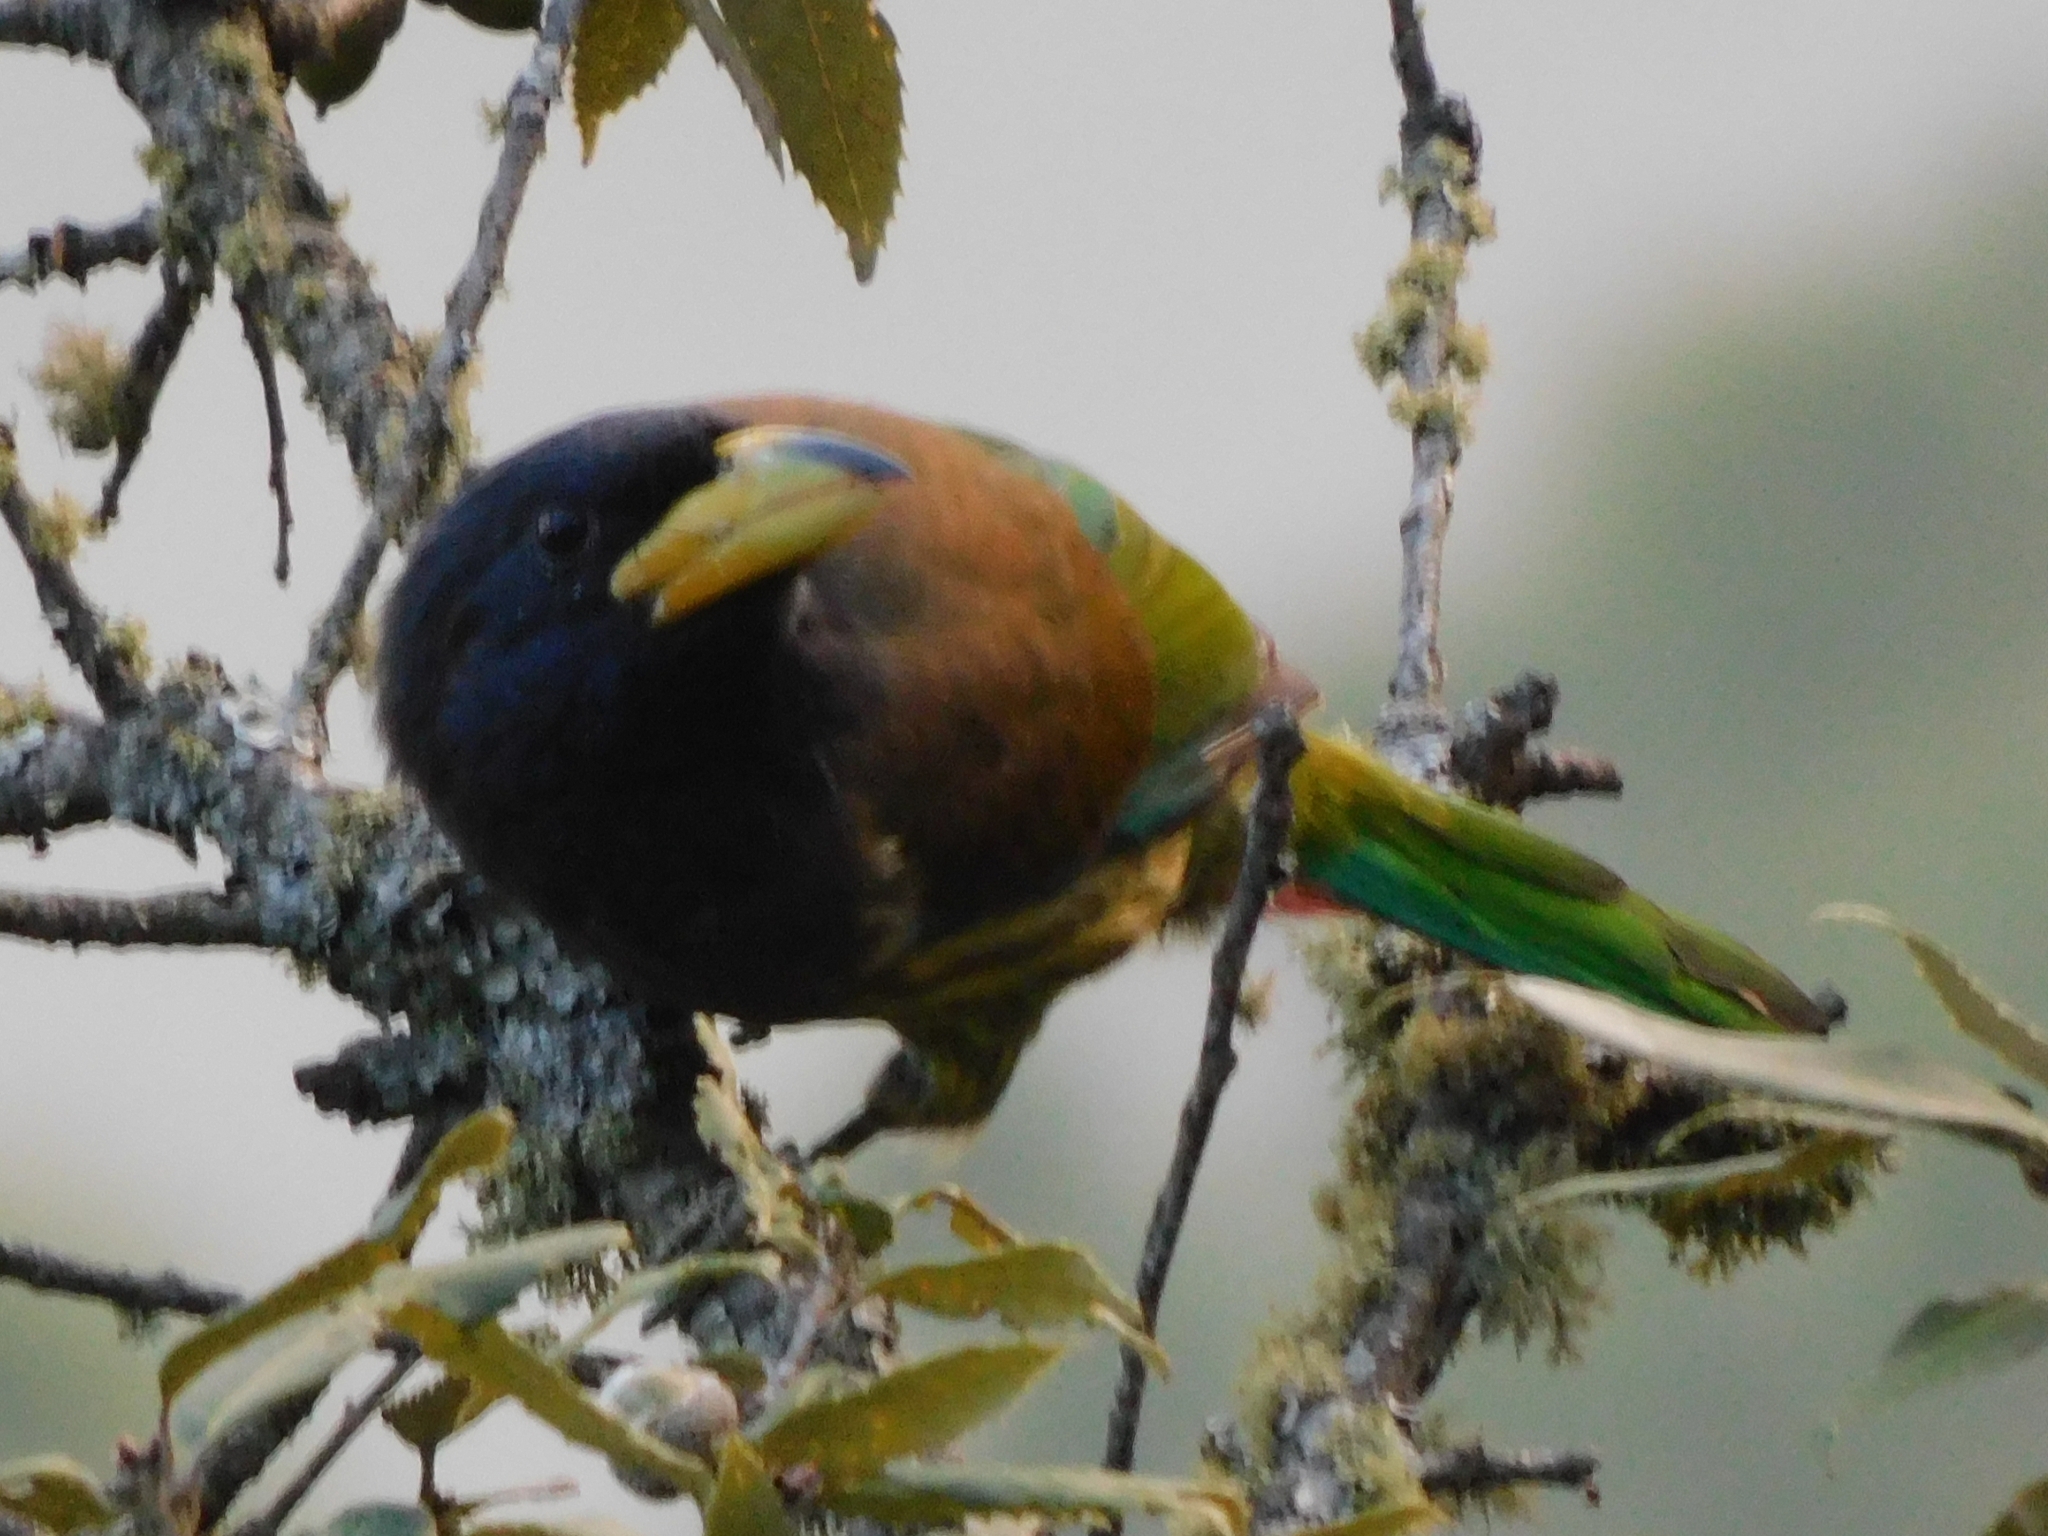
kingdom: Animalia
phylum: Chordata
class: Aves
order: Piciformes
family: Megalaimidae
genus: Psilopogon
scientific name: Psilopogon virens
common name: Great barbet
